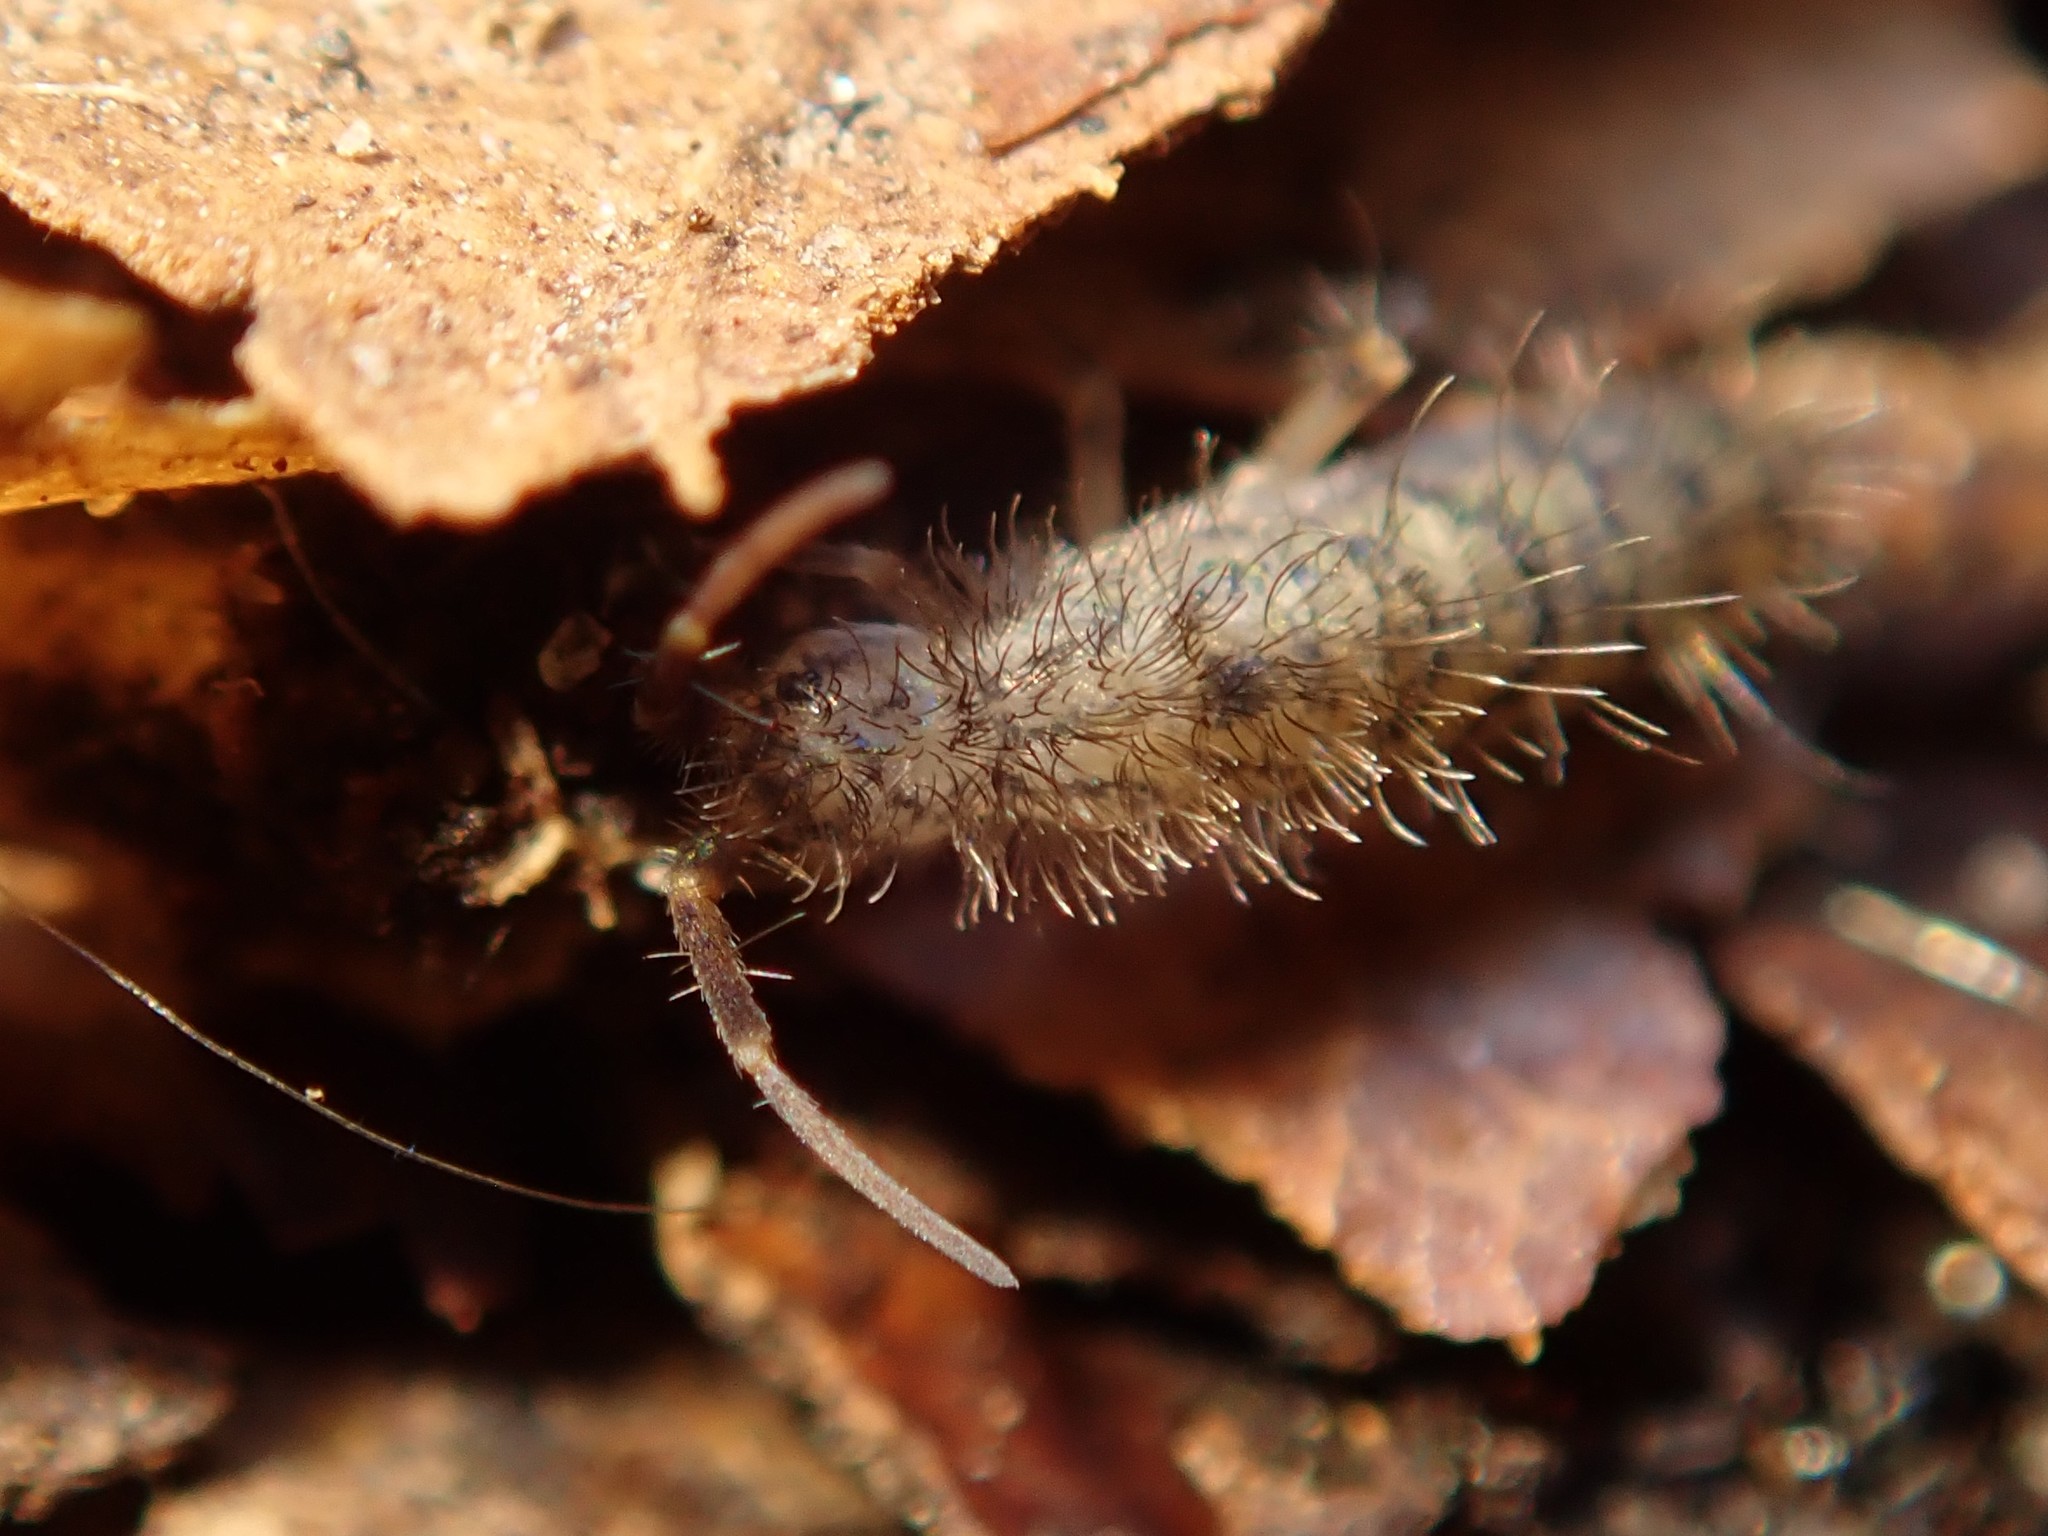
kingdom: Animalia
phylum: Arthropoda
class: Collembola
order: Entomobryomorpha
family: Orchesellidae
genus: Orchesella
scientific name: Orchesella villosa
